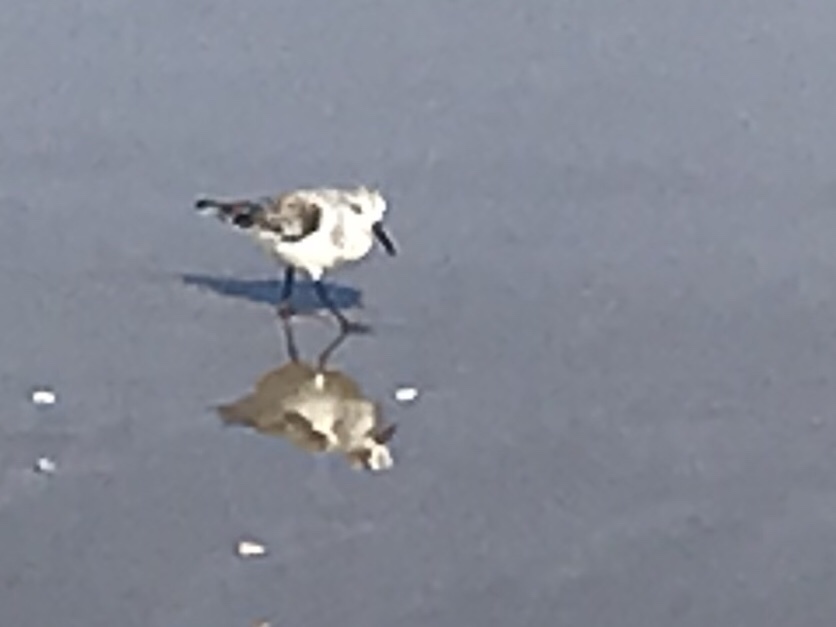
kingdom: Animalia
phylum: Chordata
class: Aves
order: Charadriiformes
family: Scolopacidae
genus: Calidris
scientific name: Calidris alba
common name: Sanderling
